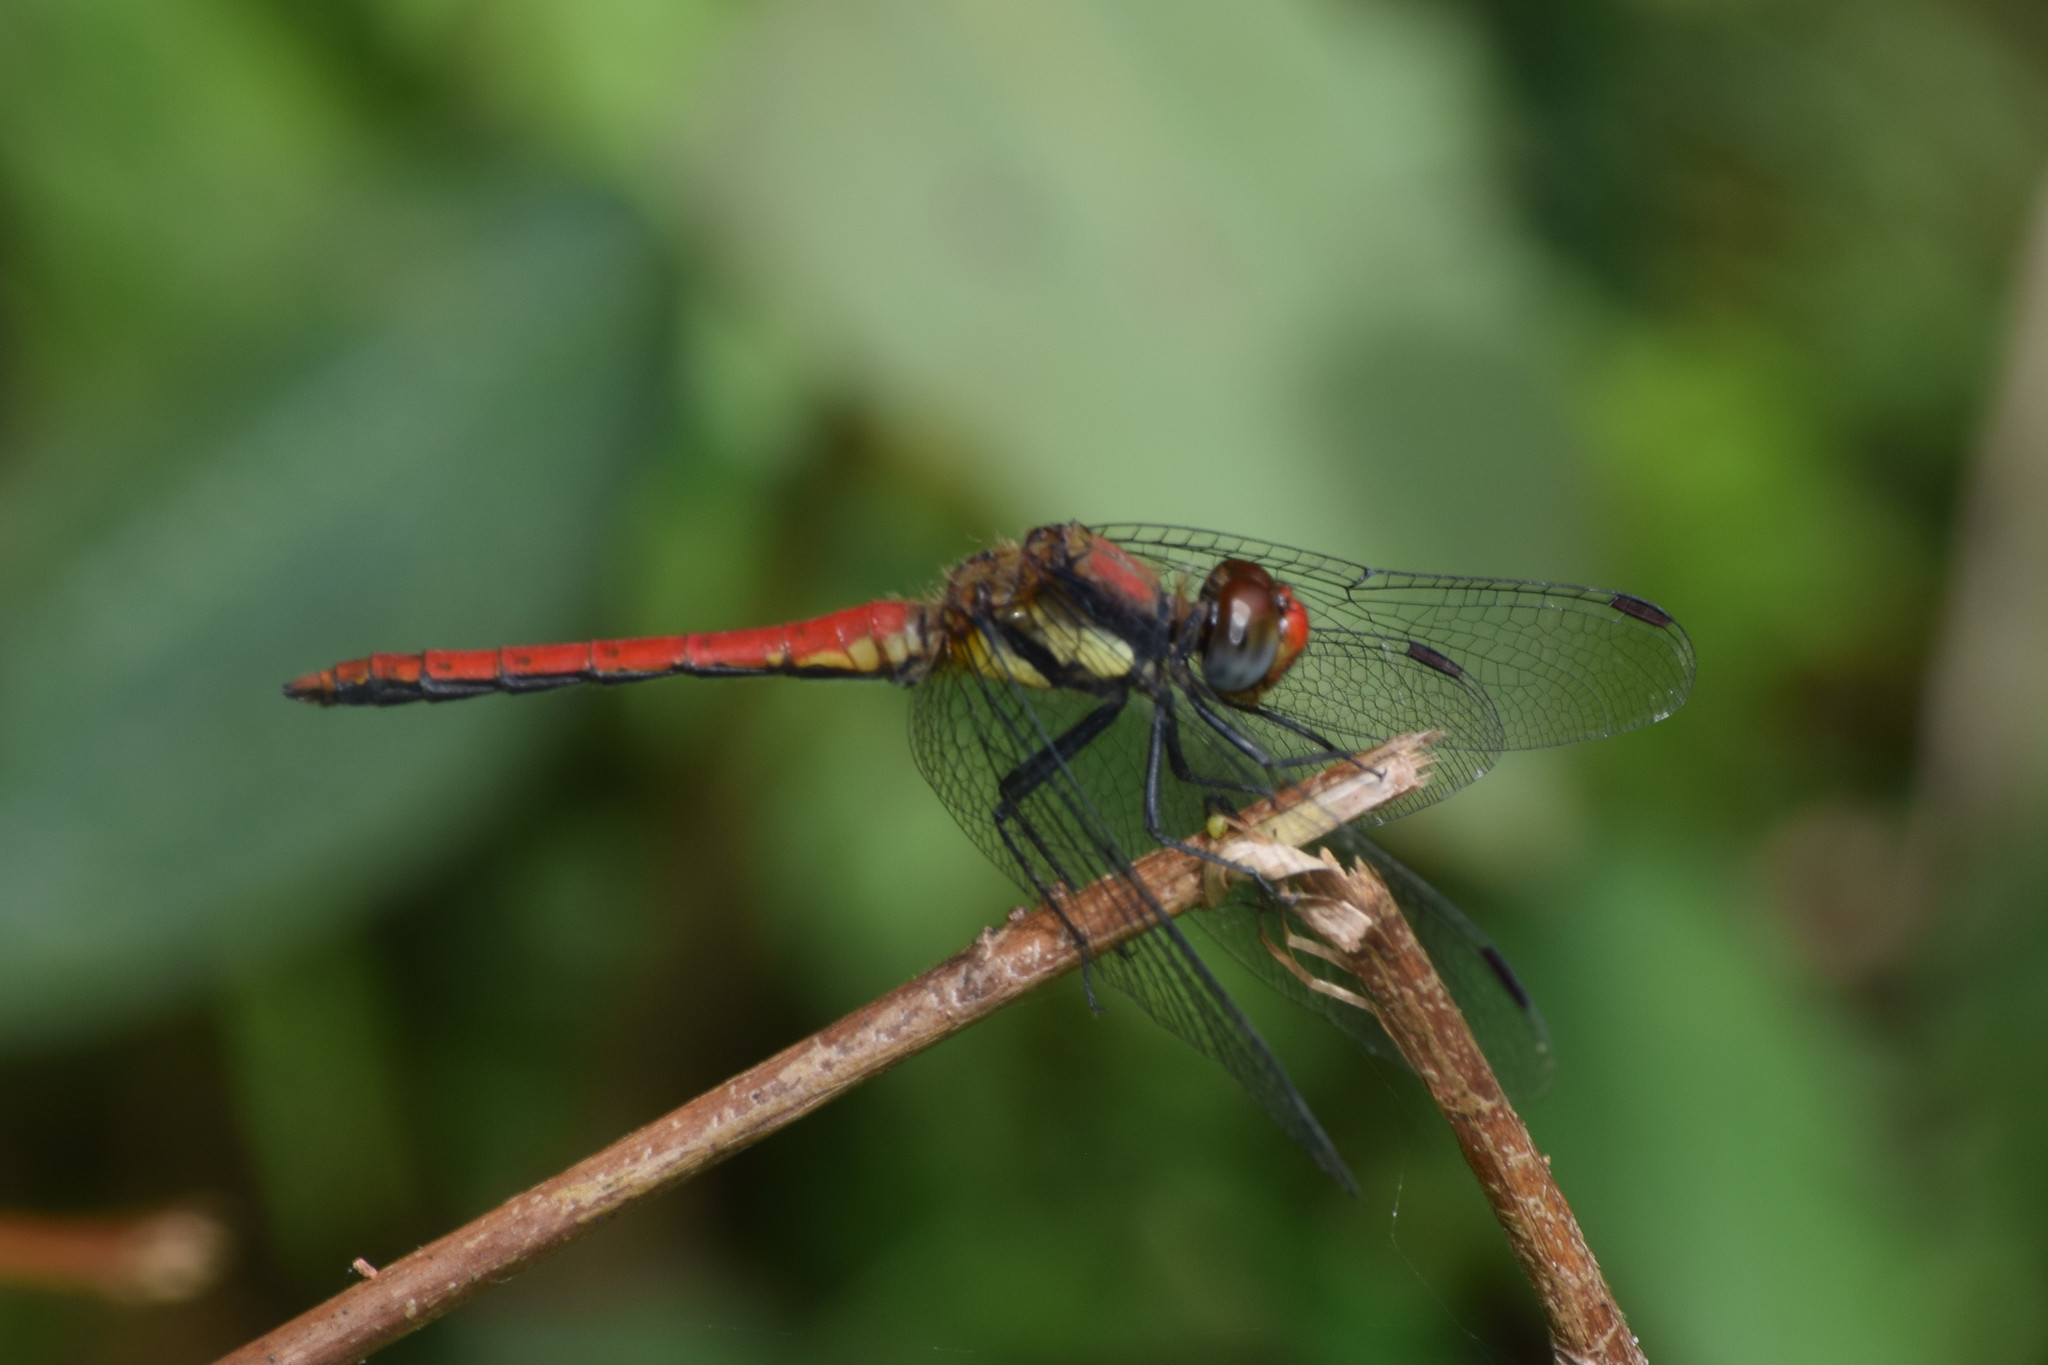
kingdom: Animalia
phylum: Arthropoda
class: Insecta
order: Odonata
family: Libellulidae
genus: Sympetrum
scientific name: Sympetrum orientale
